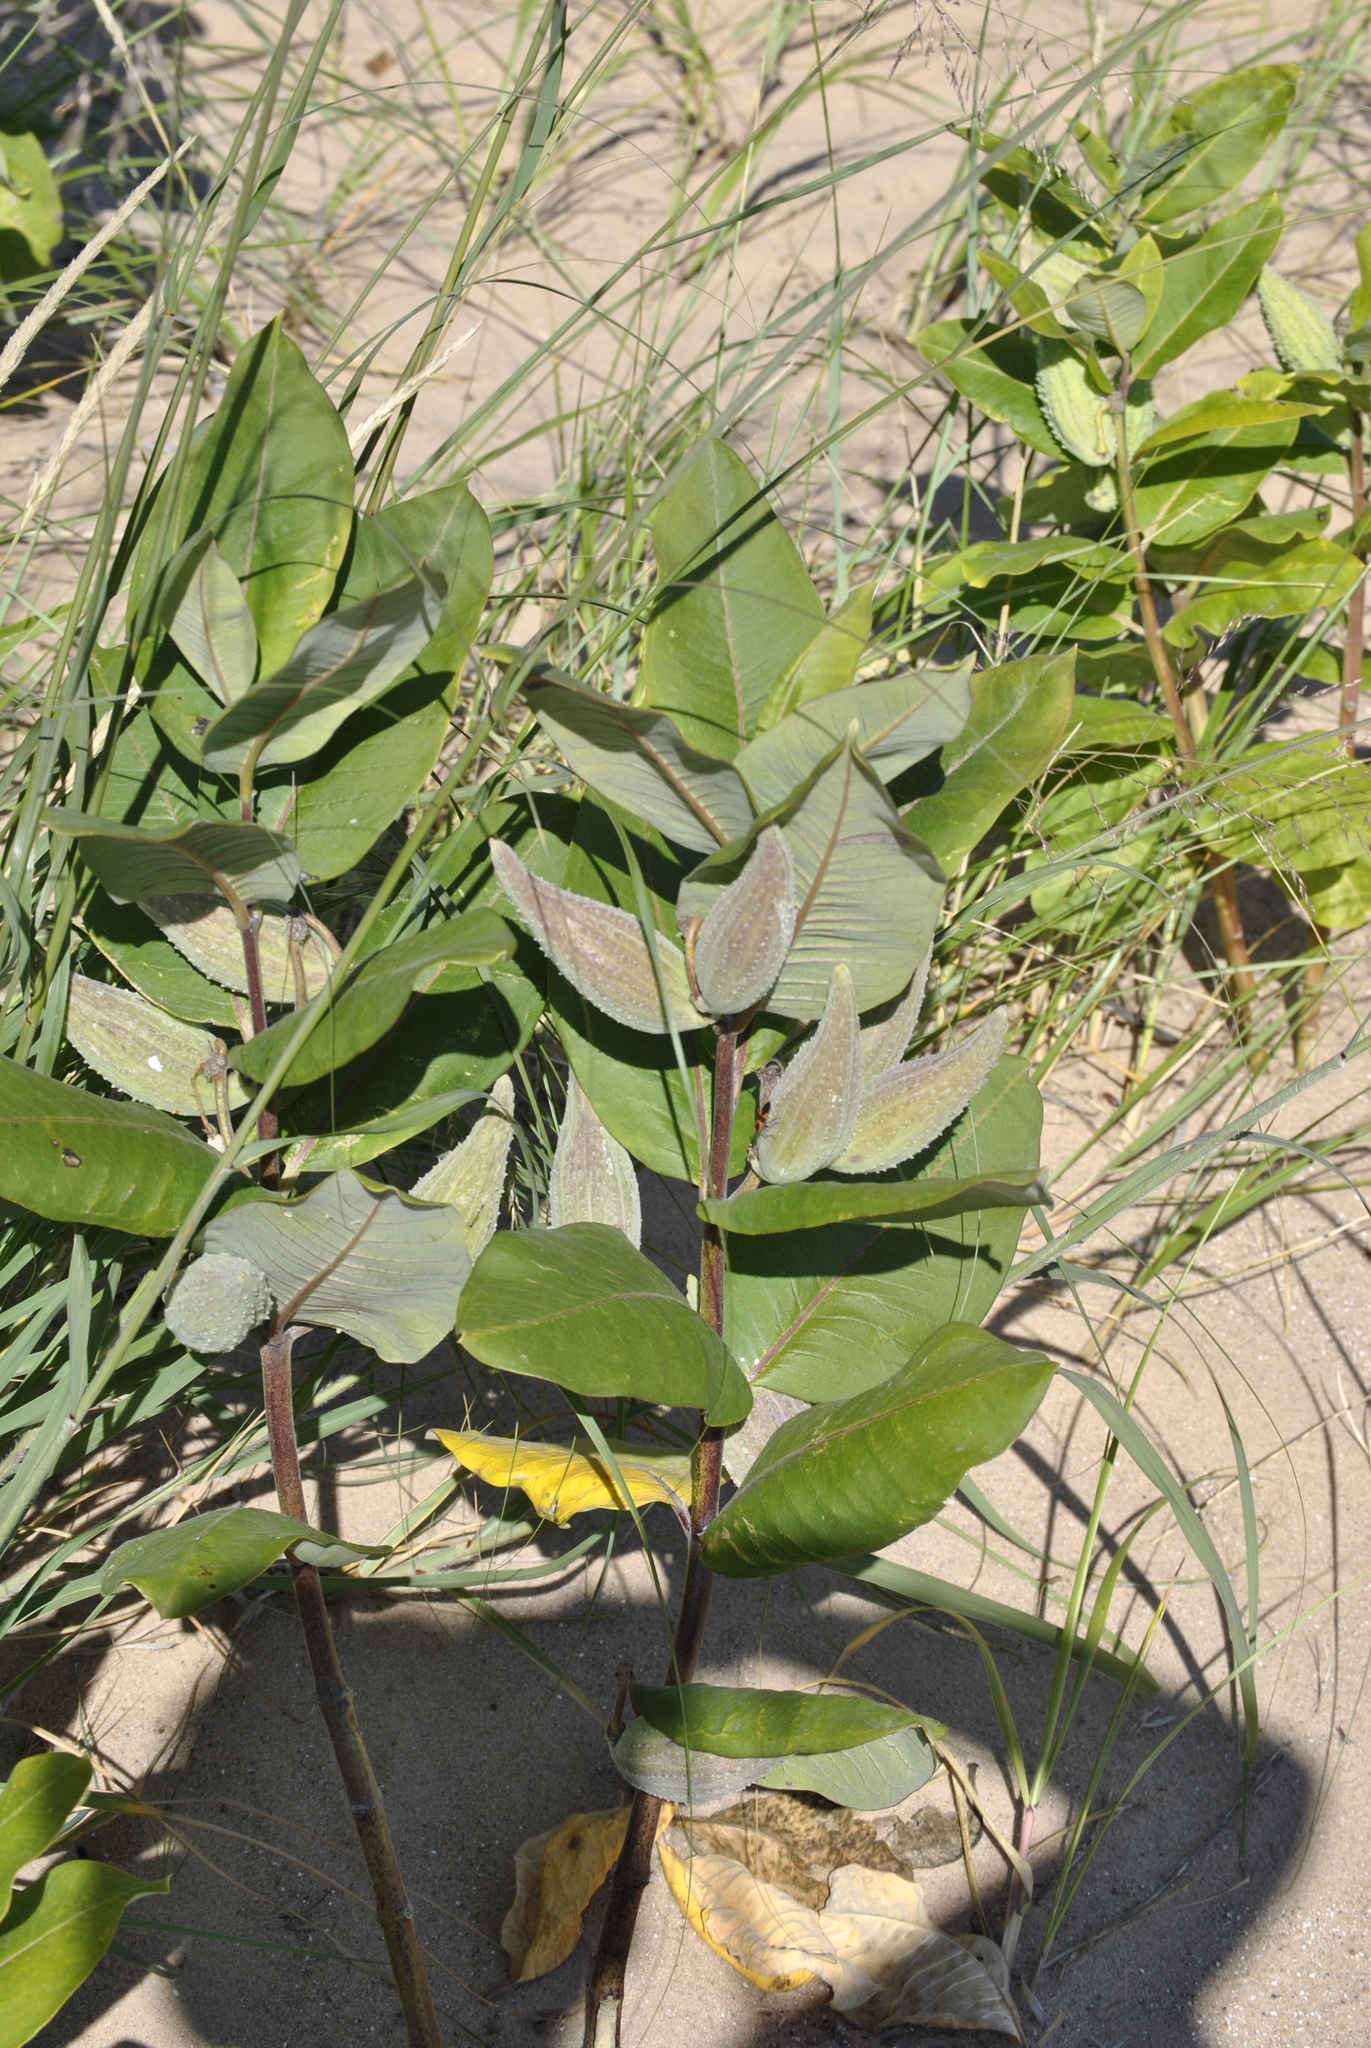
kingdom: Plantae
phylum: Tracheophyta
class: Magnoliopsida
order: Gentianales
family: Apocynaceae
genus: Asclepias
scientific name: Asclepias syriaca
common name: Common milkweed
